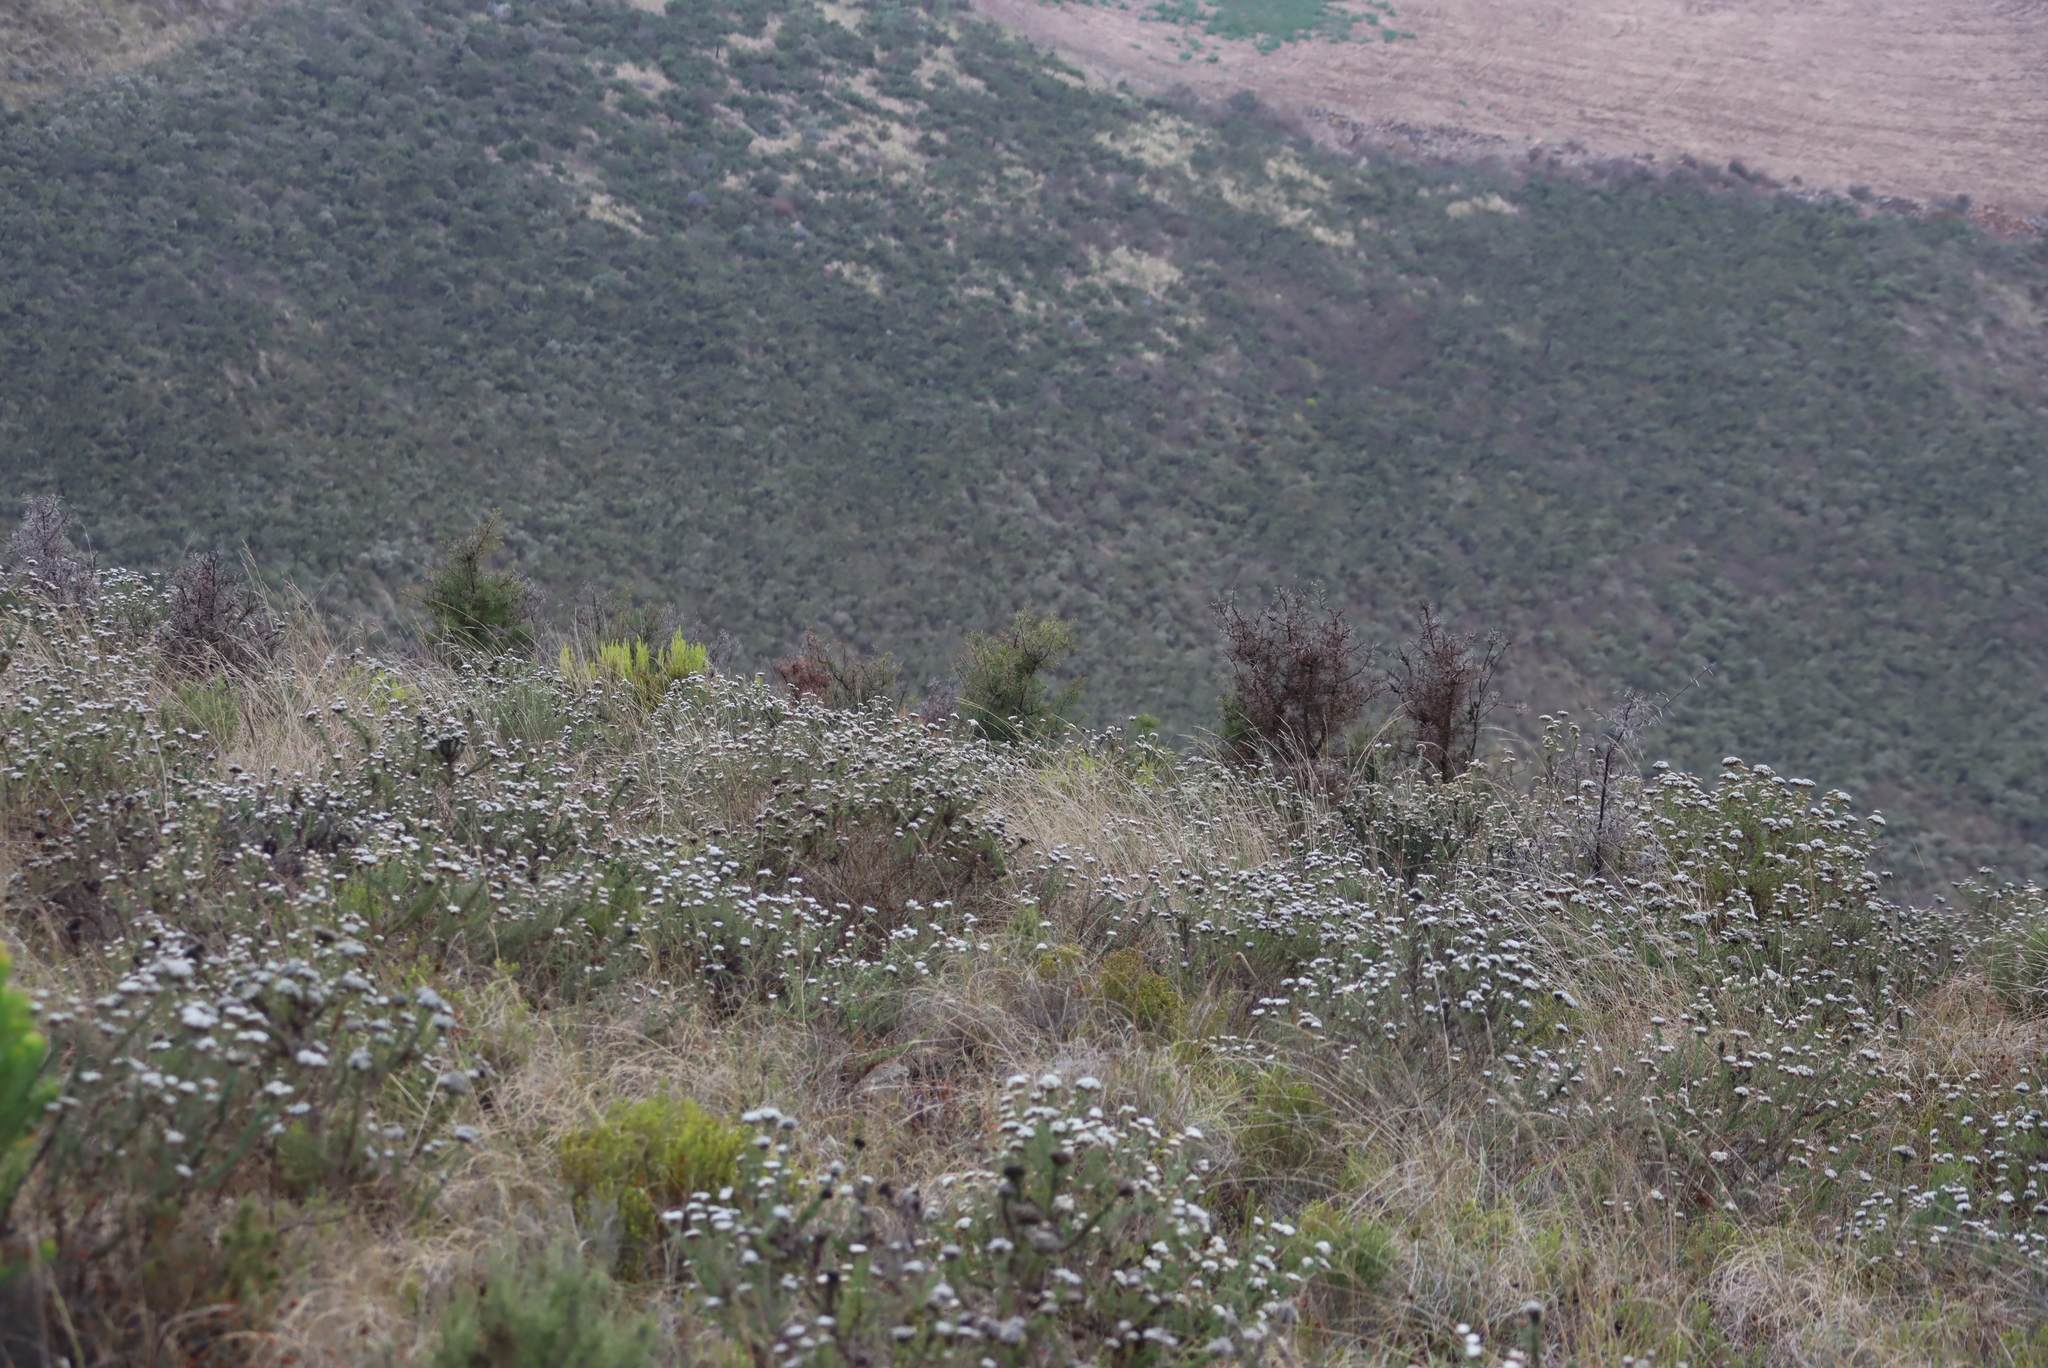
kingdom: Plantae
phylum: Tracheophyta
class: Magnoliopsida
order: Proteales
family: Proteaceae
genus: Hakea
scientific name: Hakea sericea
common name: Needle bush
